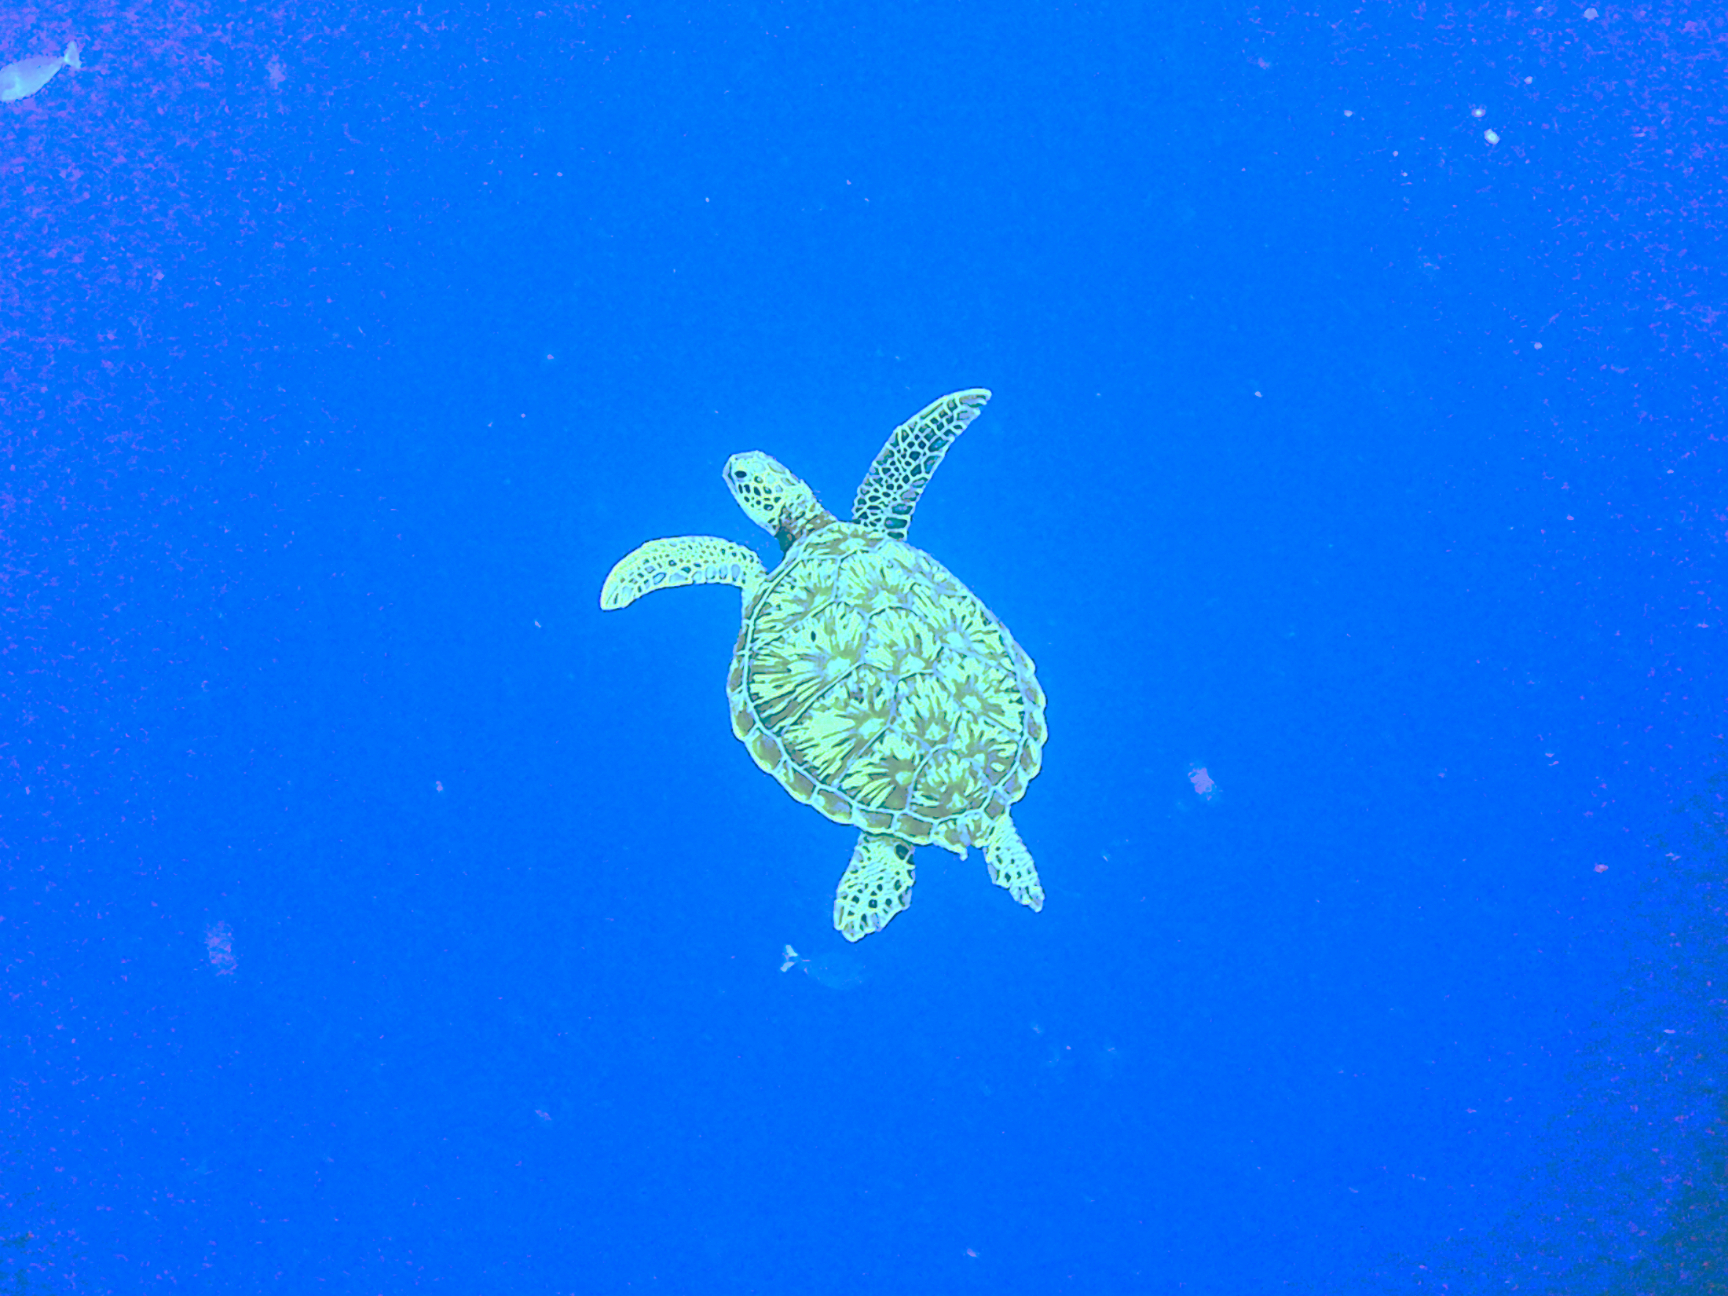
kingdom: Animalia
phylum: Chordata
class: Testudines
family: Cheloniidae
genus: Chelonia
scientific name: Chelonia mydas
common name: Green turtle
